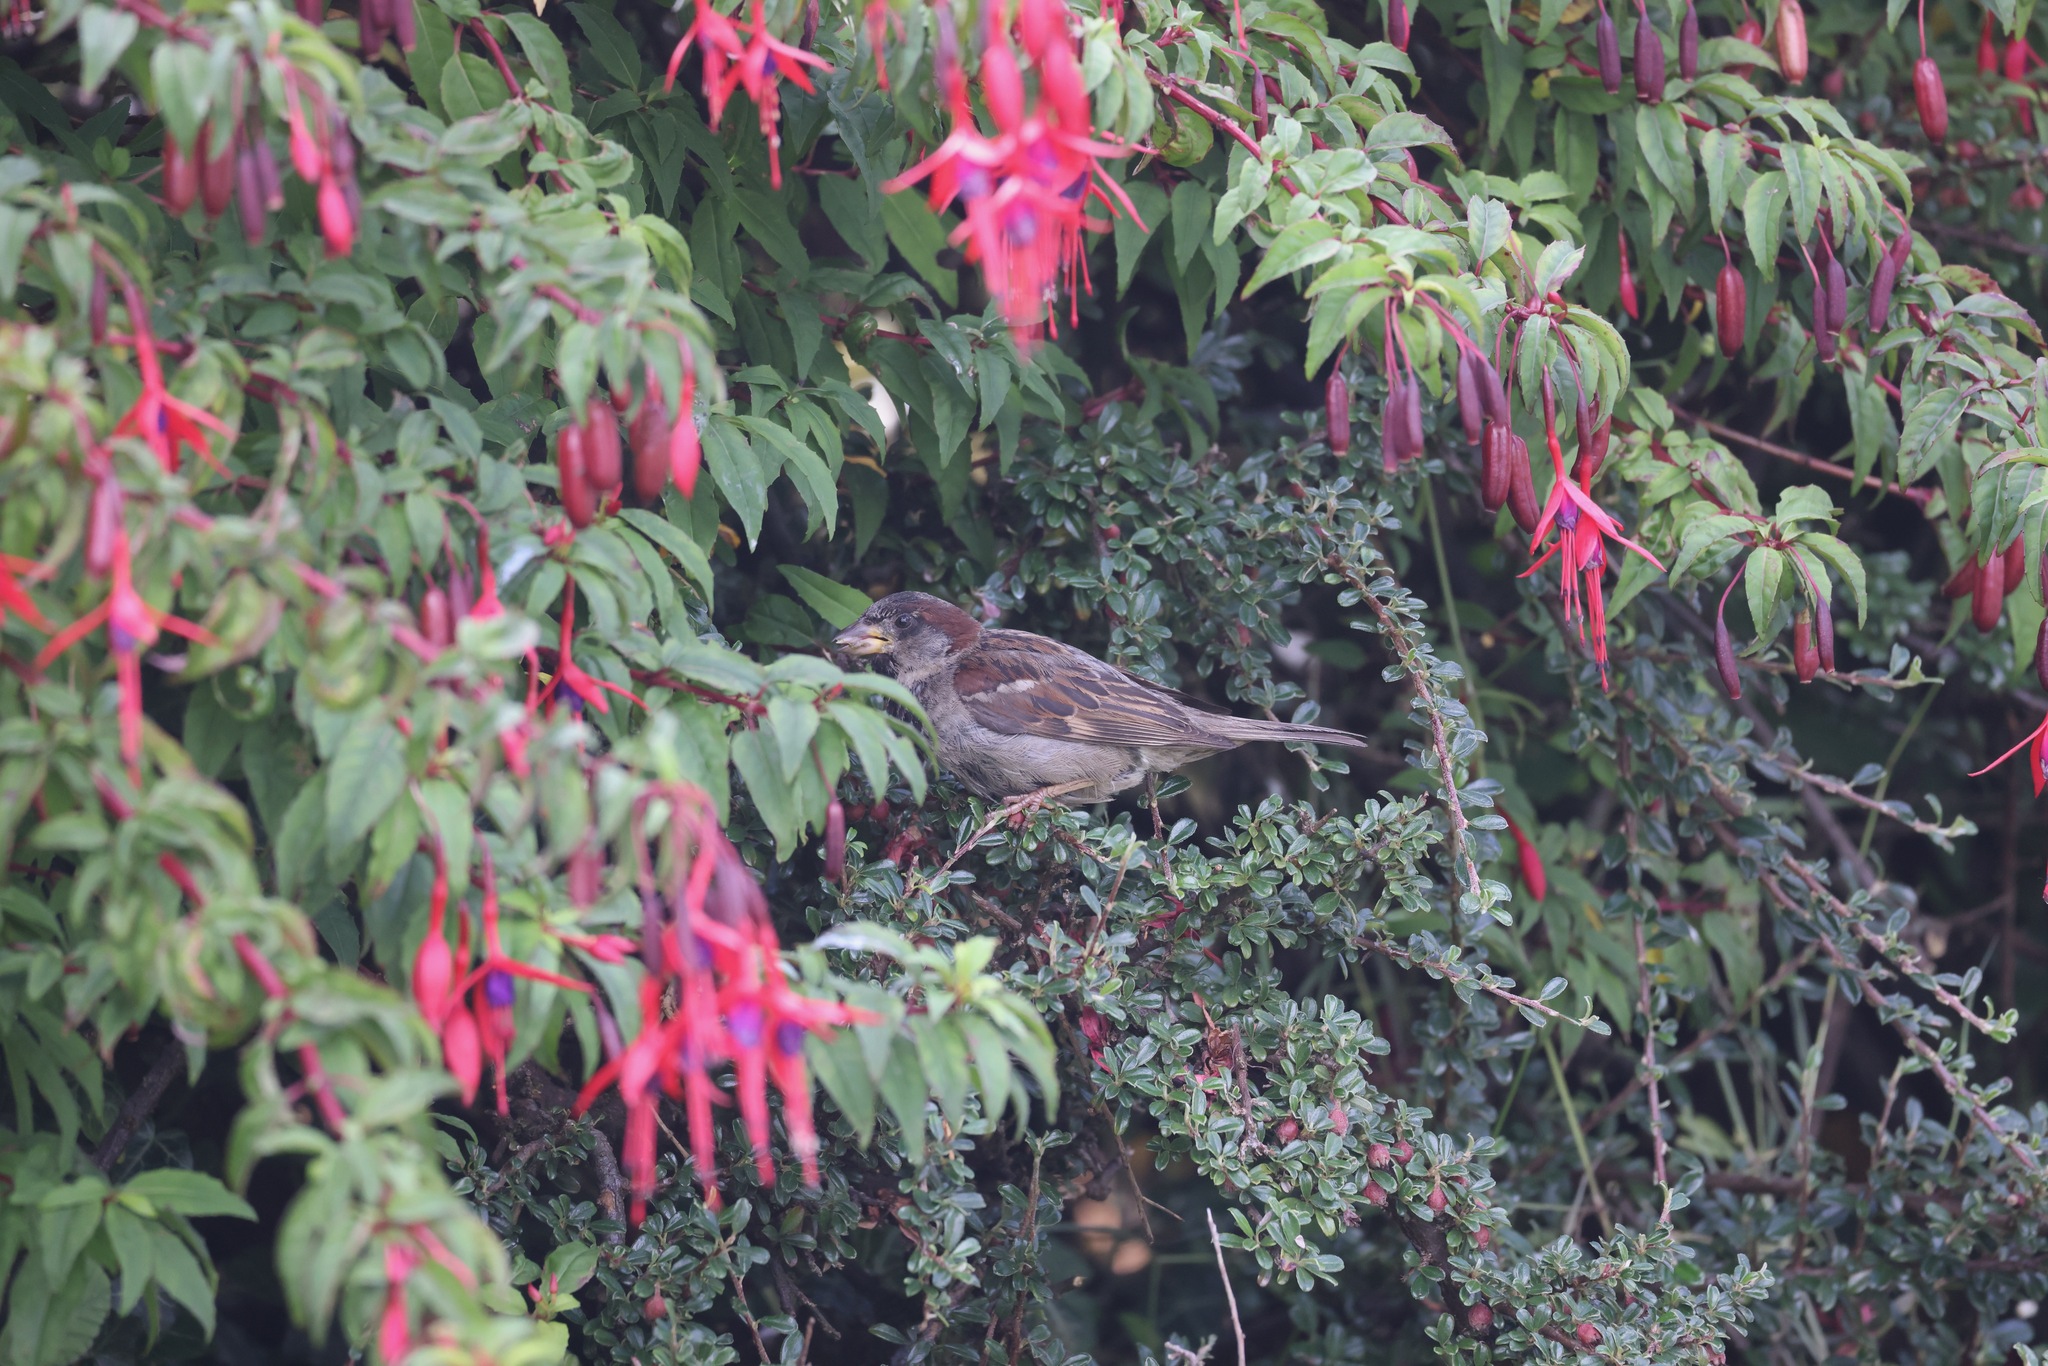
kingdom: Plantae
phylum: Tracheophyta
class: Magnoliopsida
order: Myrtales
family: Onagraceae
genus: Fuchsia
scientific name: Fuchsia magellanica
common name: Hardy fuchsia
